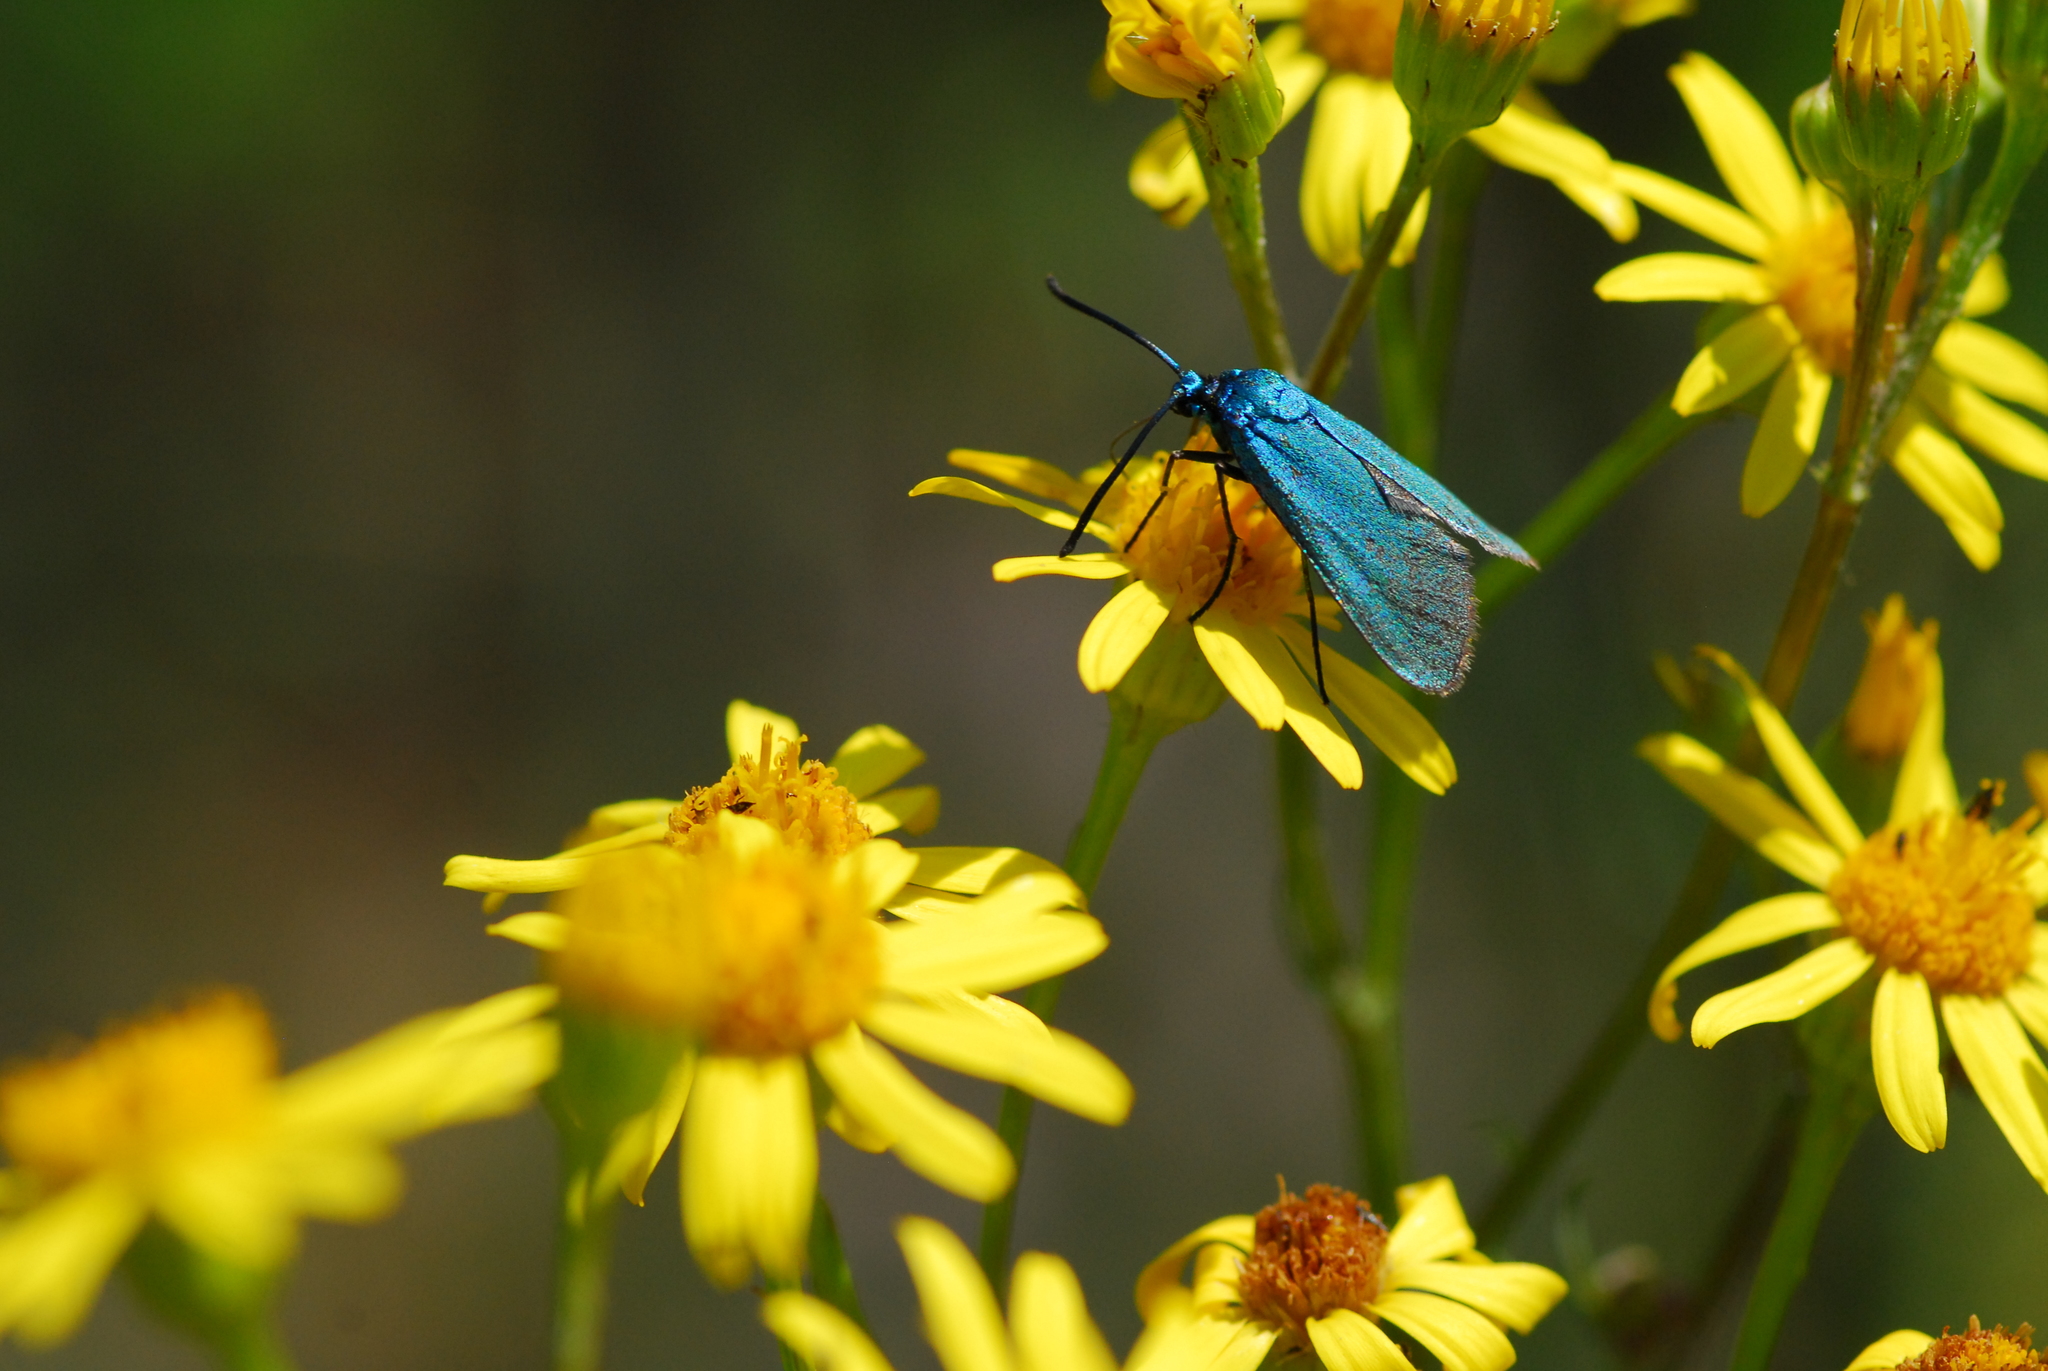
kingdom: Animalia
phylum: Arthropoda
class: Insecta
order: Lepidoptera
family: Zygaenidae
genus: Adscita
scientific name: Adscita statices
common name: Forester
